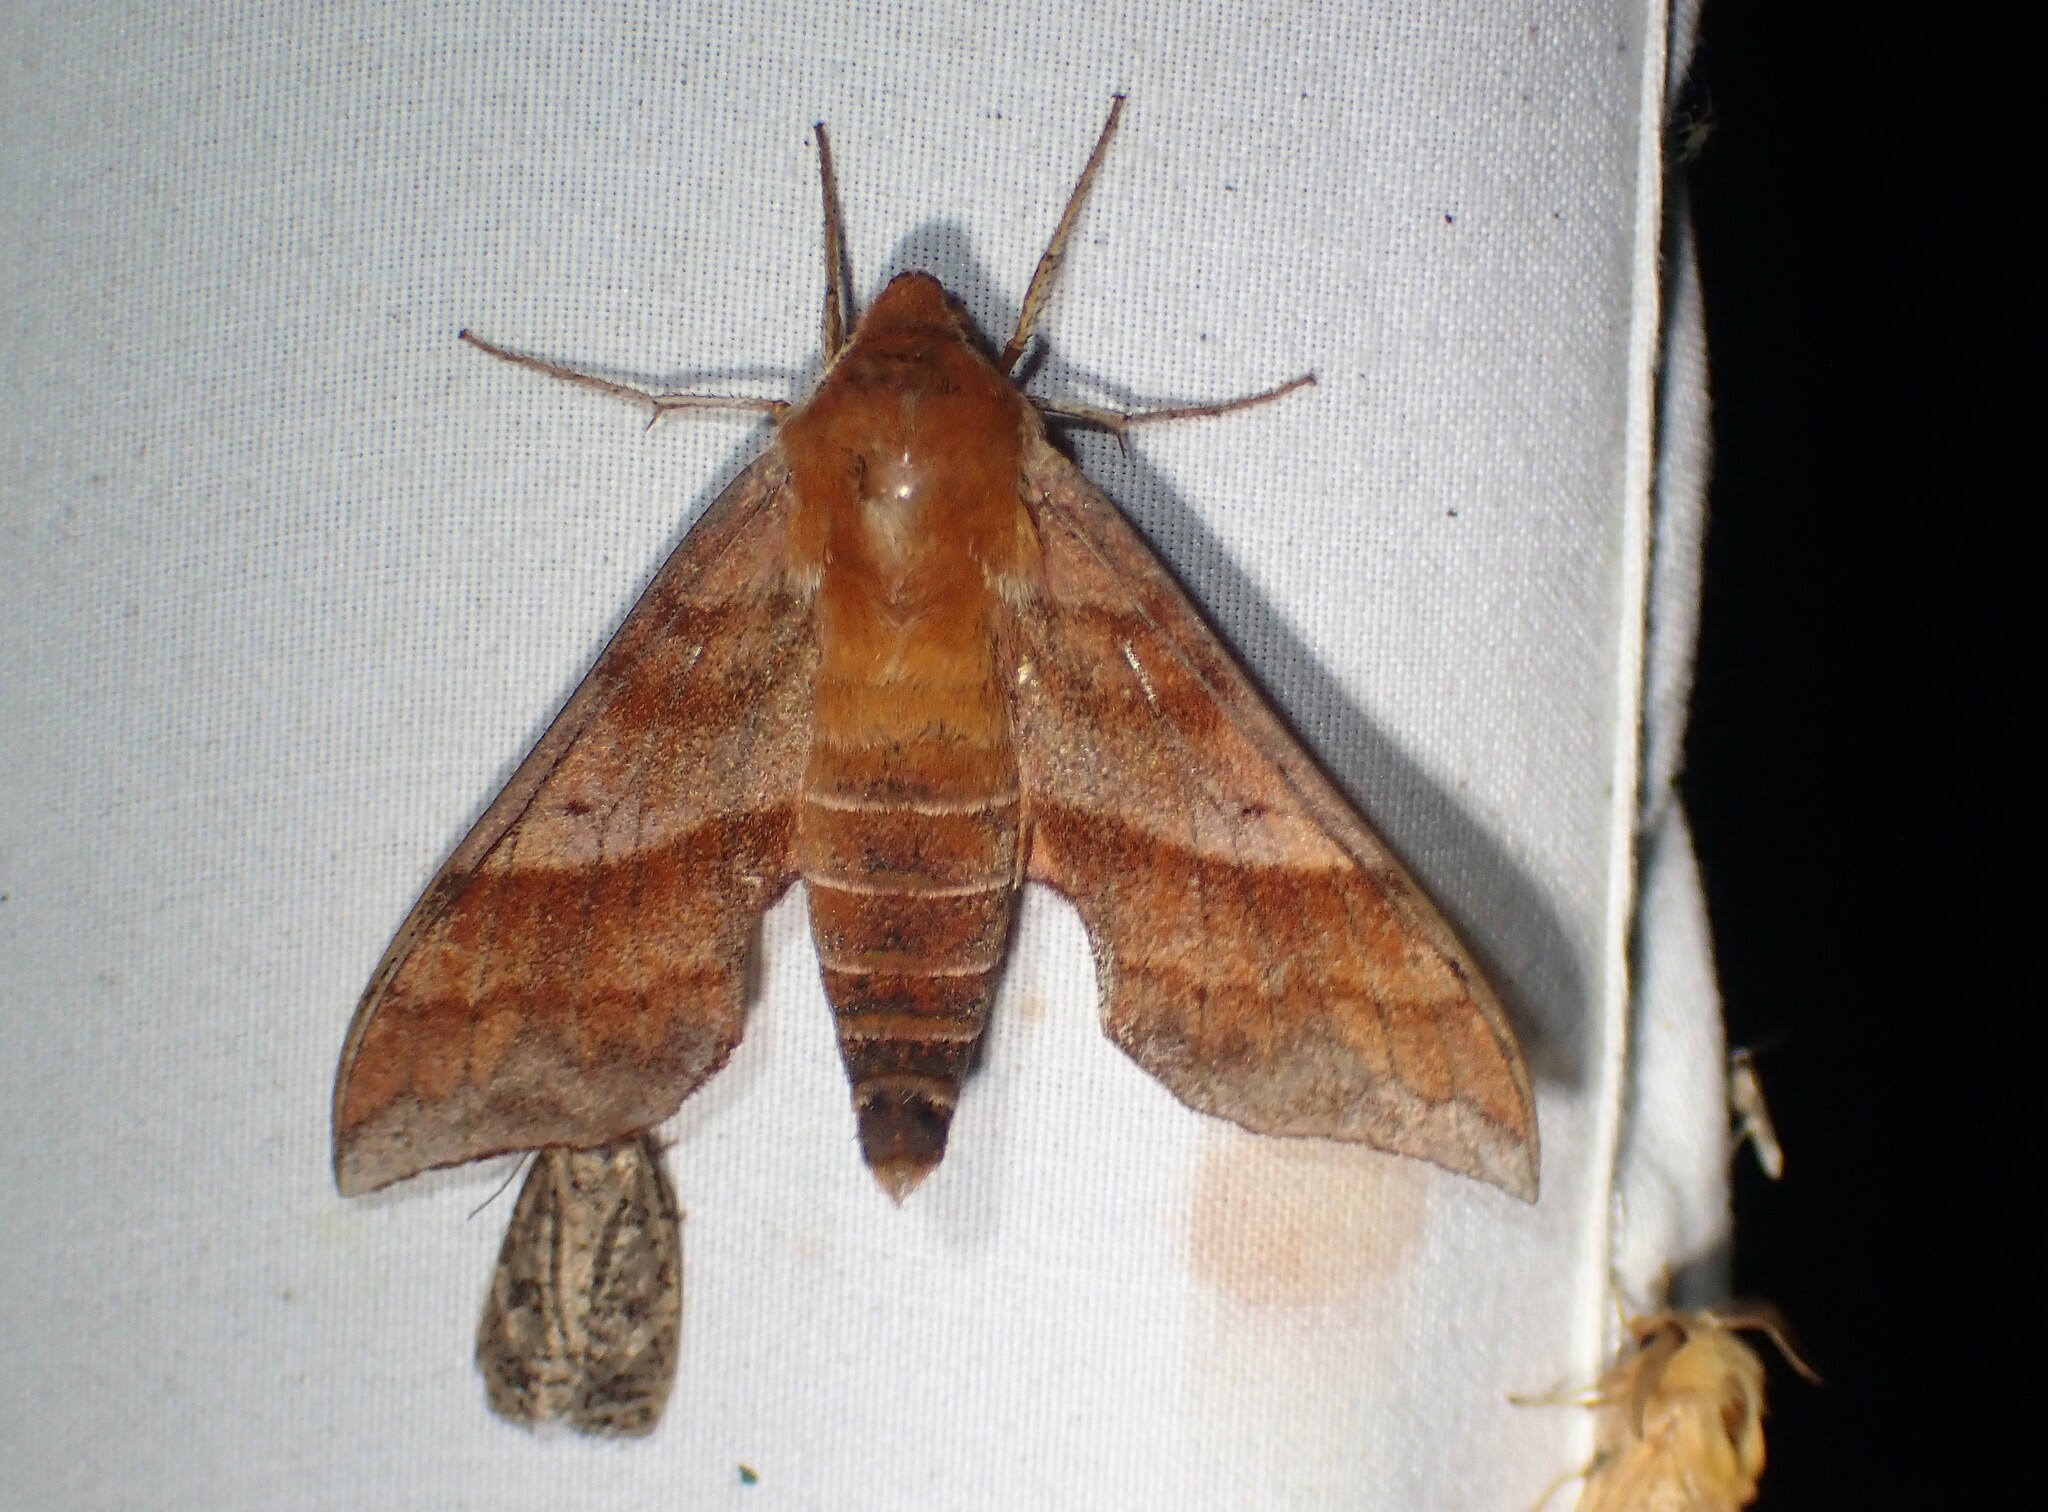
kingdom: Animalia
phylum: Arthropoda
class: Insecta
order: Lepidoptera
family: Sphingidae
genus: Darapsa
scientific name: Darapsa choerilus
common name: Azalea sphinx
